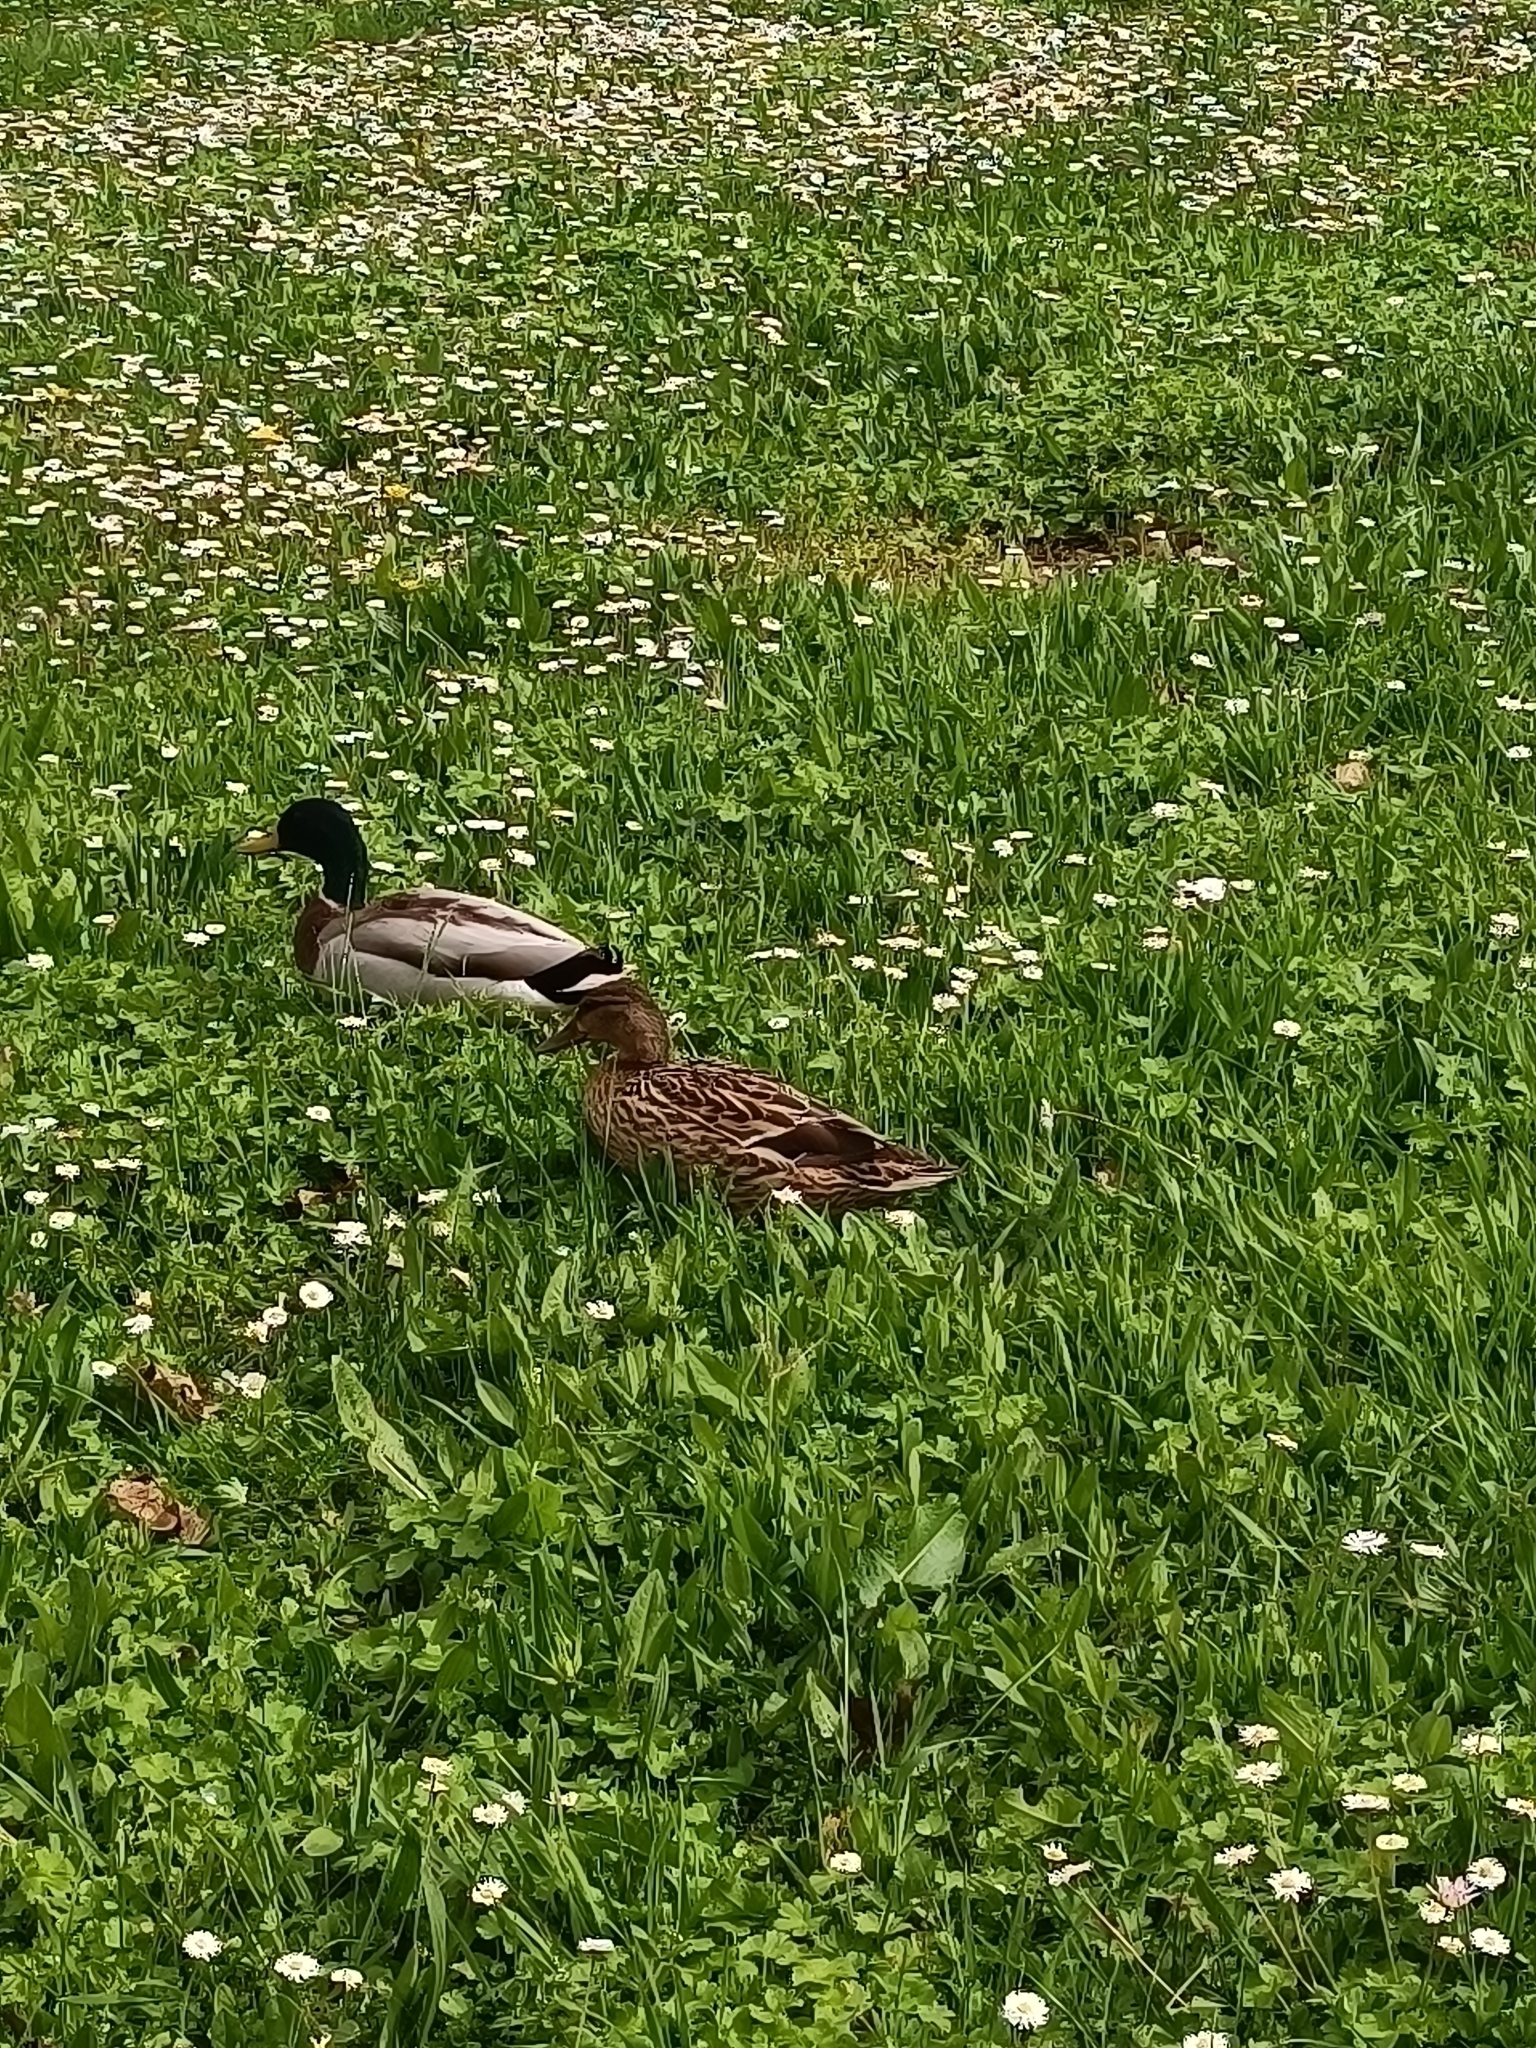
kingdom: Animalia
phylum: Chordata
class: Aves
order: Anseriformes
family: Anatidae
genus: Anas
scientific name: Anas platyrhynchos
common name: Mallard
